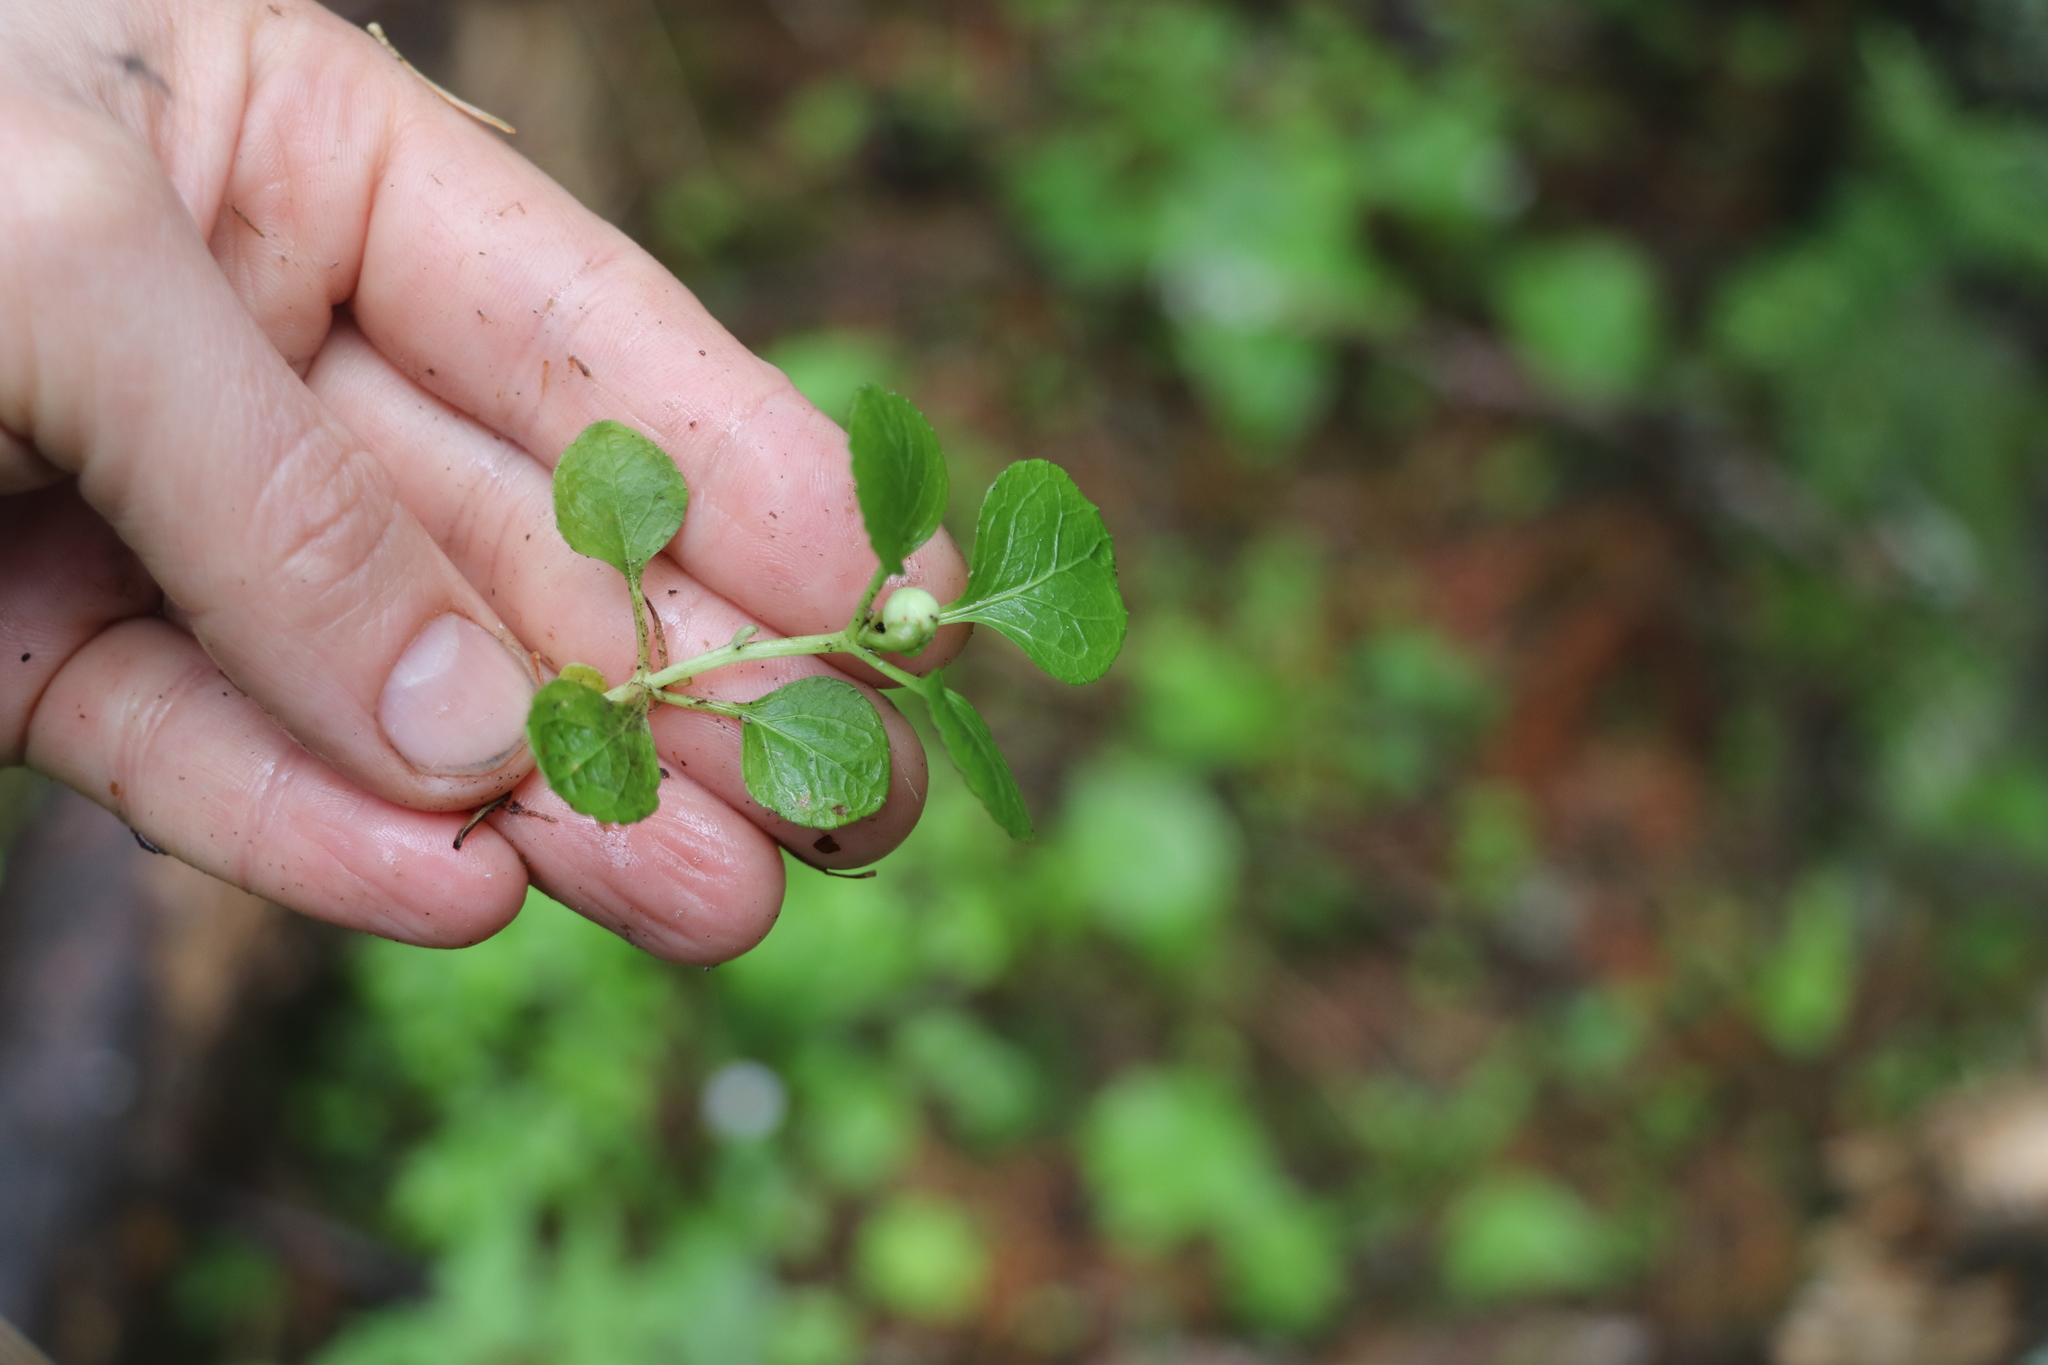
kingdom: Plantae
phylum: Tracheophyta
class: Magnoliopsida
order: Ericales
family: Ericaceae
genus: Moneses
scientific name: Moneses uniflora
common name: One-flowered wintergreen
